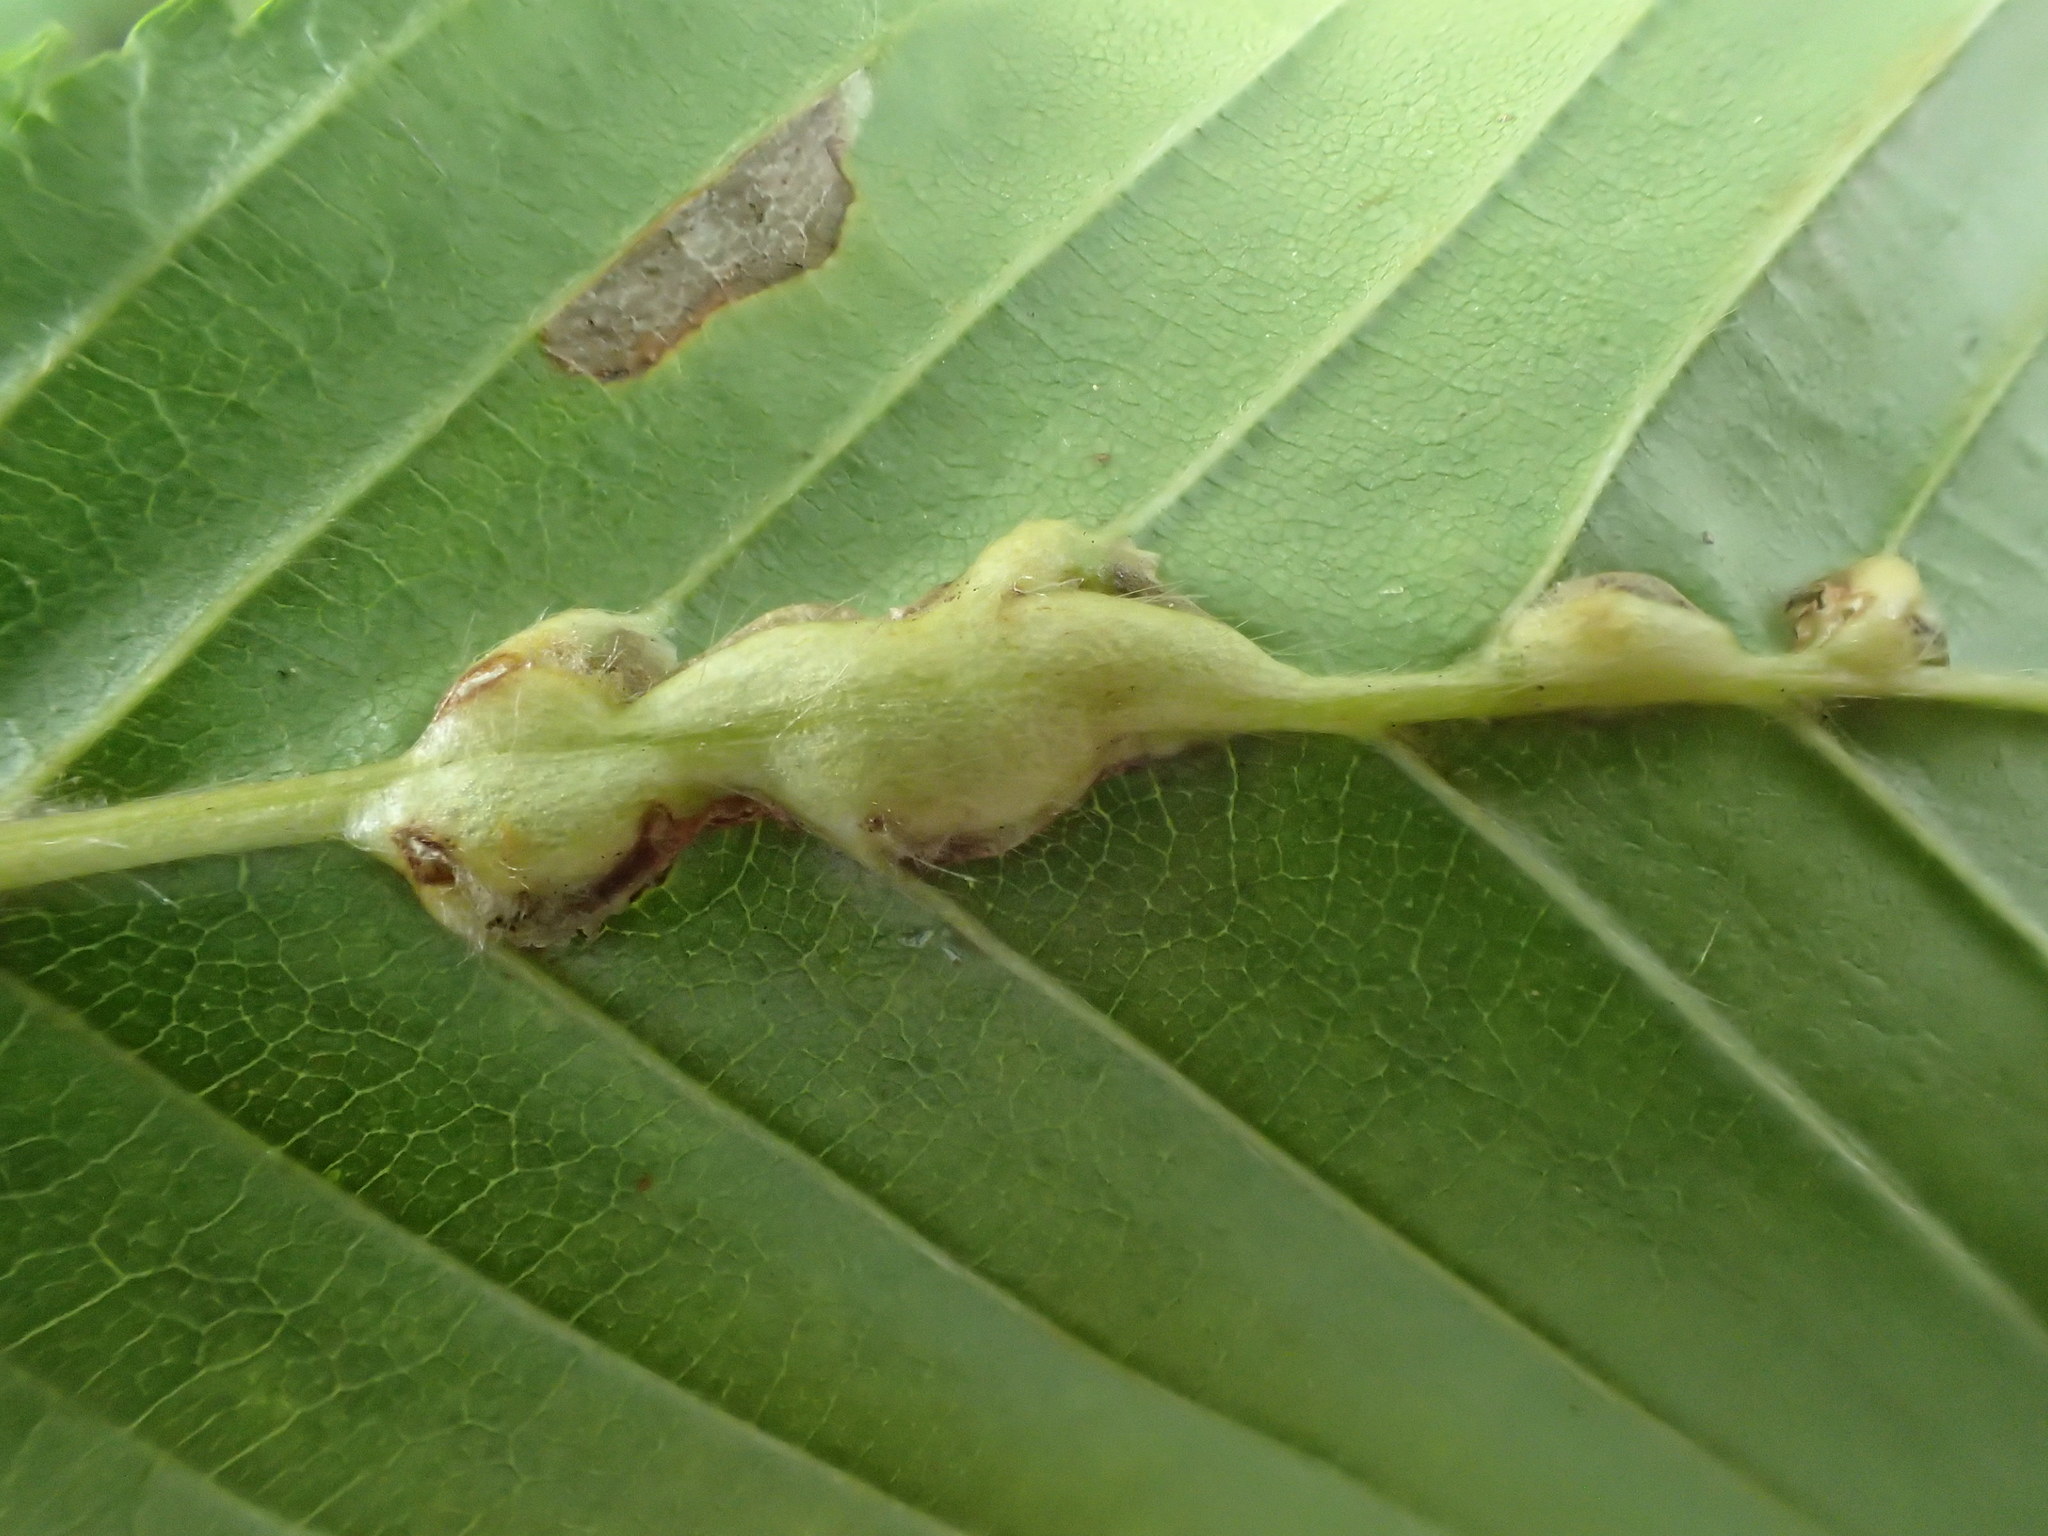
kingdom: Animalia
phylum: Arthropoda
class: Insecta
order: Diptera
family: Cecidomyiidae
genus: Zygiobia
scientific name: Zygiobia carpini
